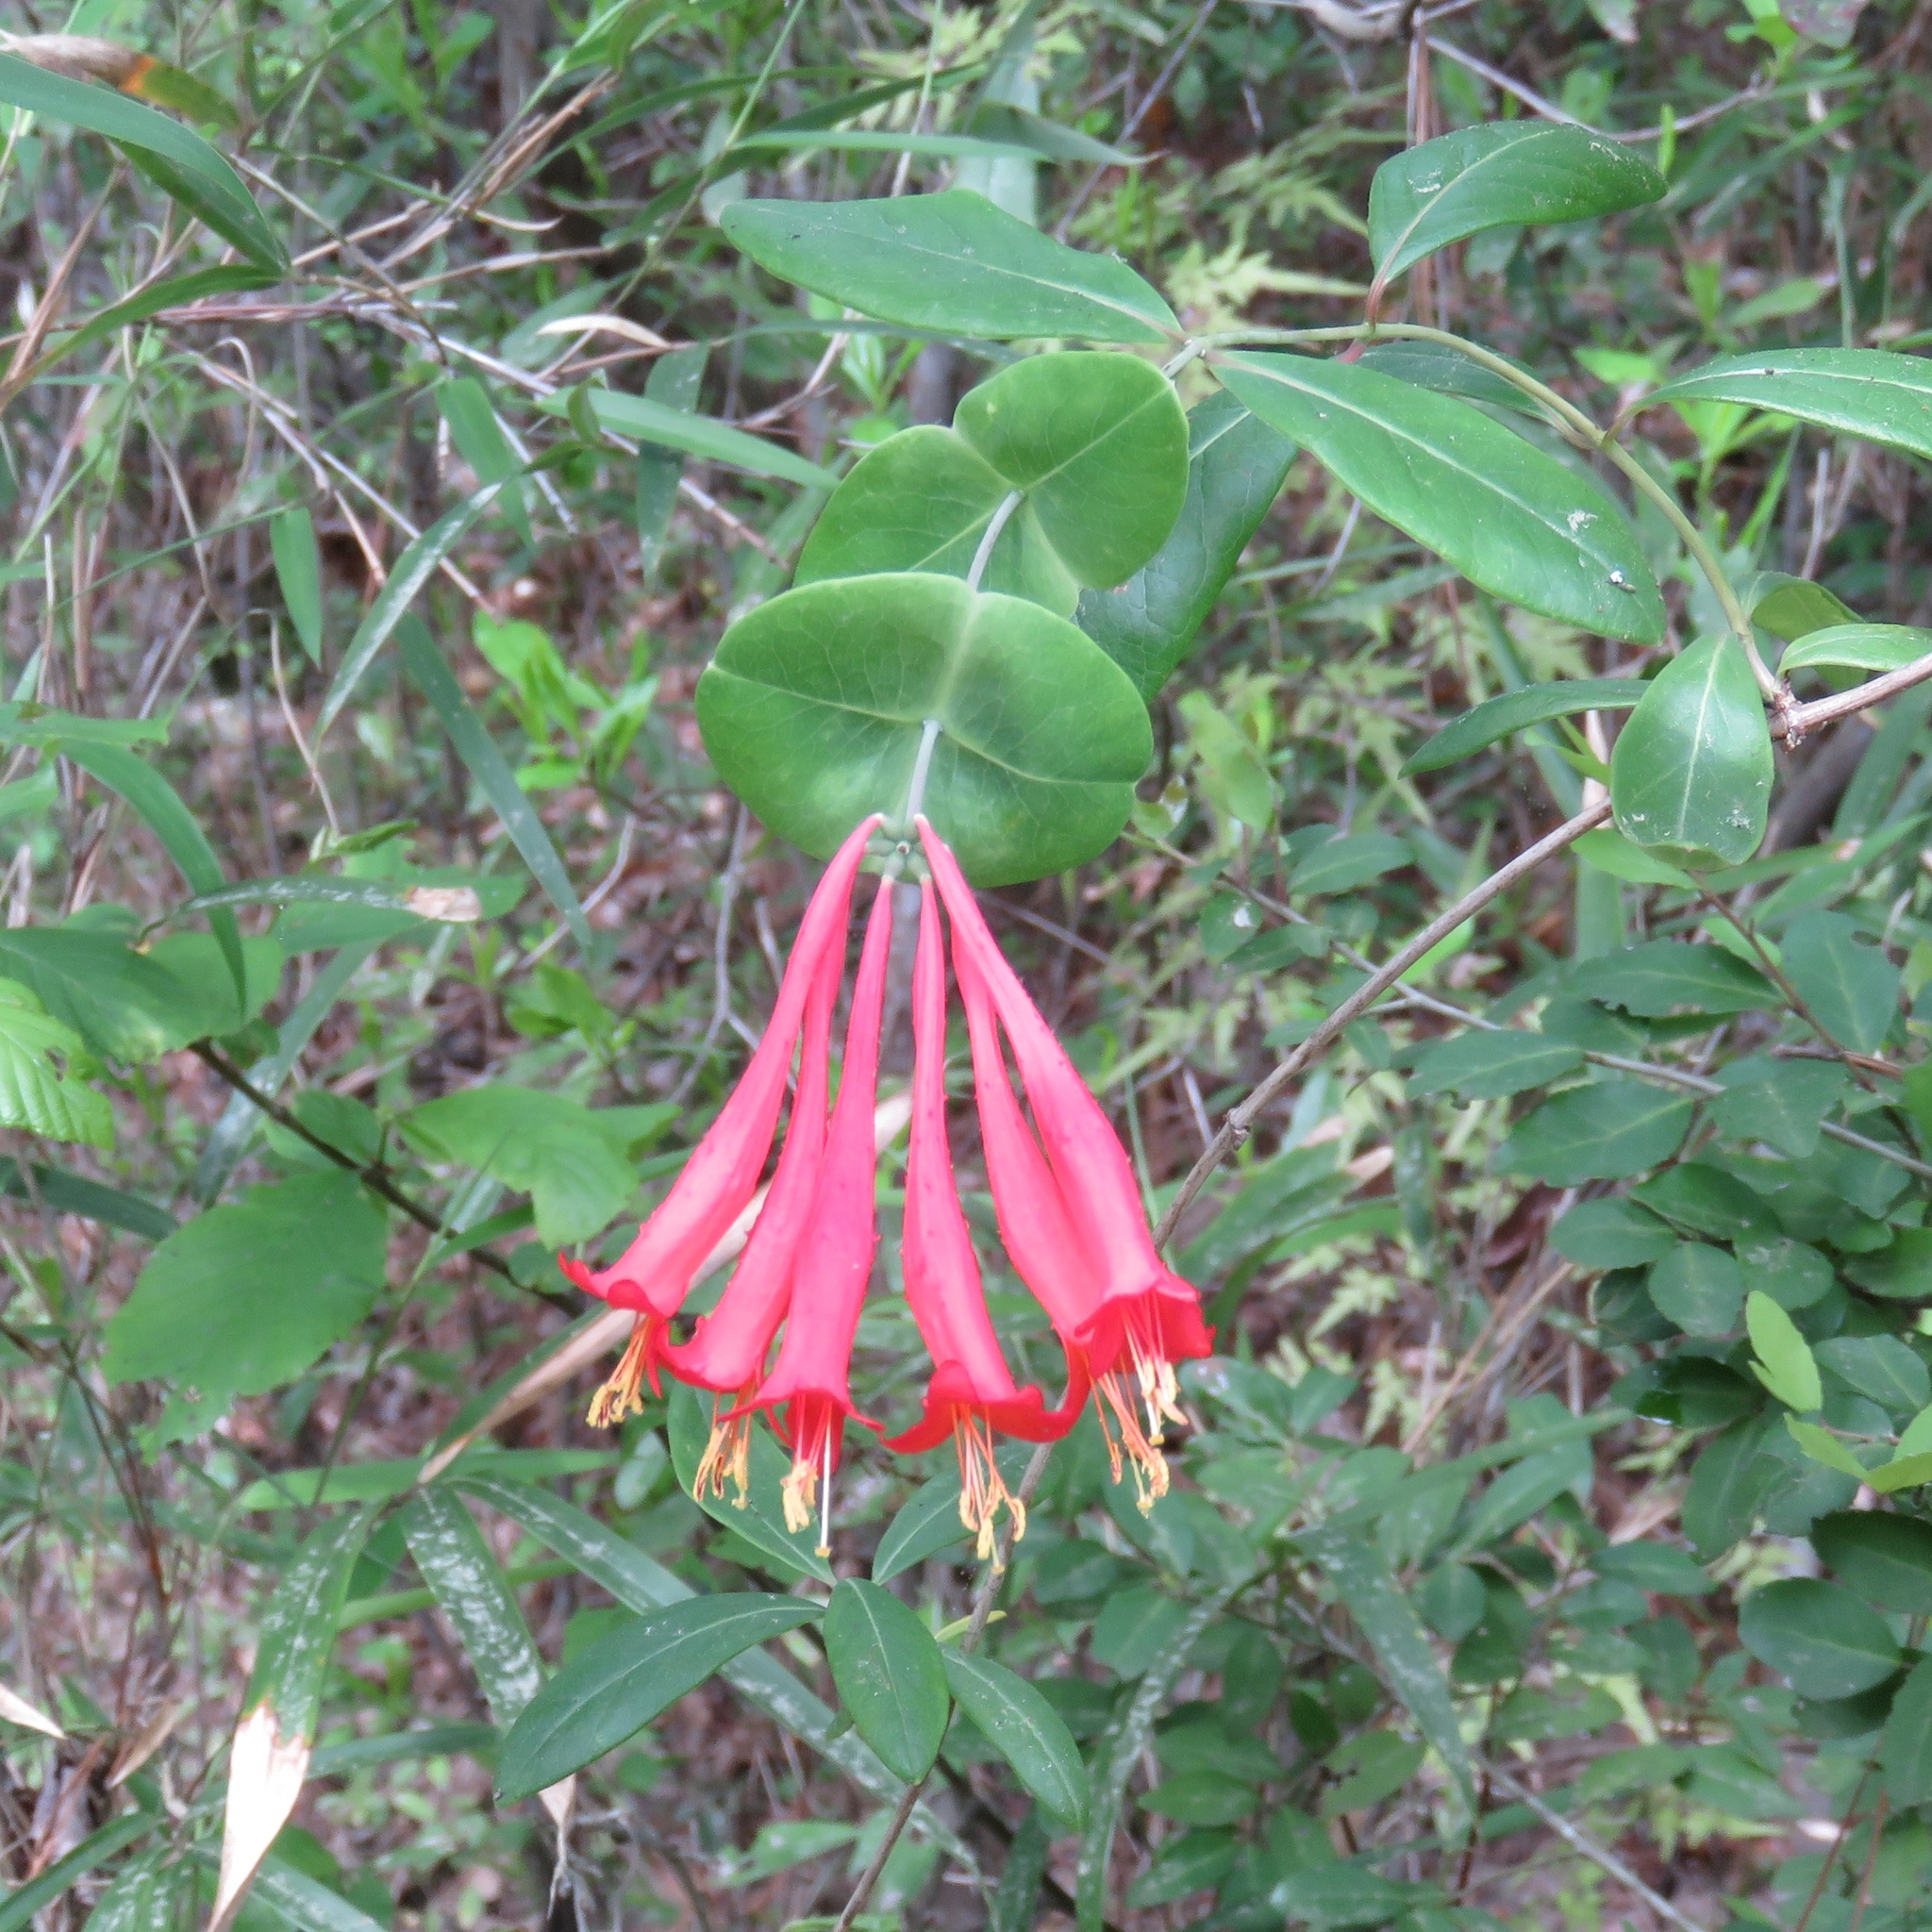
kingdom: Plantae
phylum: Tracheophyta
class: Magnoliopsida
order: Dipsacales
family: Caprifoliaceae
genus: Lonicera
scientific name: Lonicera sempervirens
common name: Coral honeysuckle
